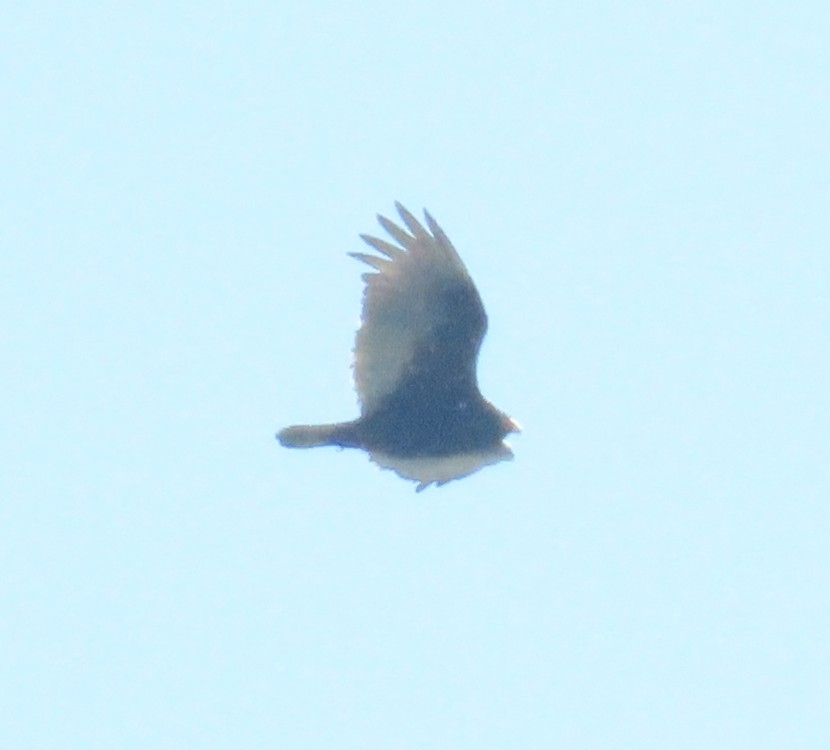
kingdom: Animalia
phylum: Chordata
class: Aves
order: Accipitriformes
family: Cathartidae
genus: Cathartes
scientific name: Cathartes aura
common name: Turkey vulture
